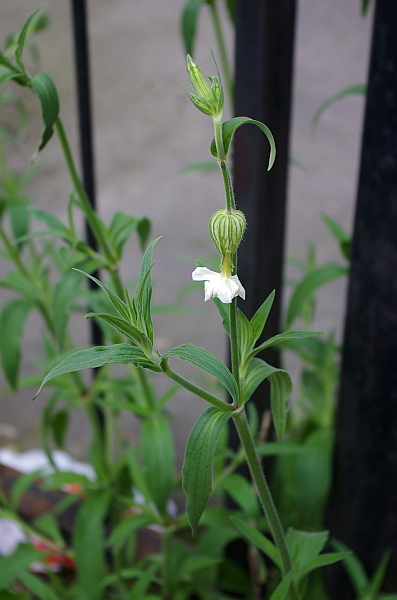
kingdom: Plantae
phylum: Tracheophyta
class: Magnoliopsida
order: Caryophyllales
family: Caryophyllaceae
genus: Silene
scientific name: Silene latifolia
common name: White campion
